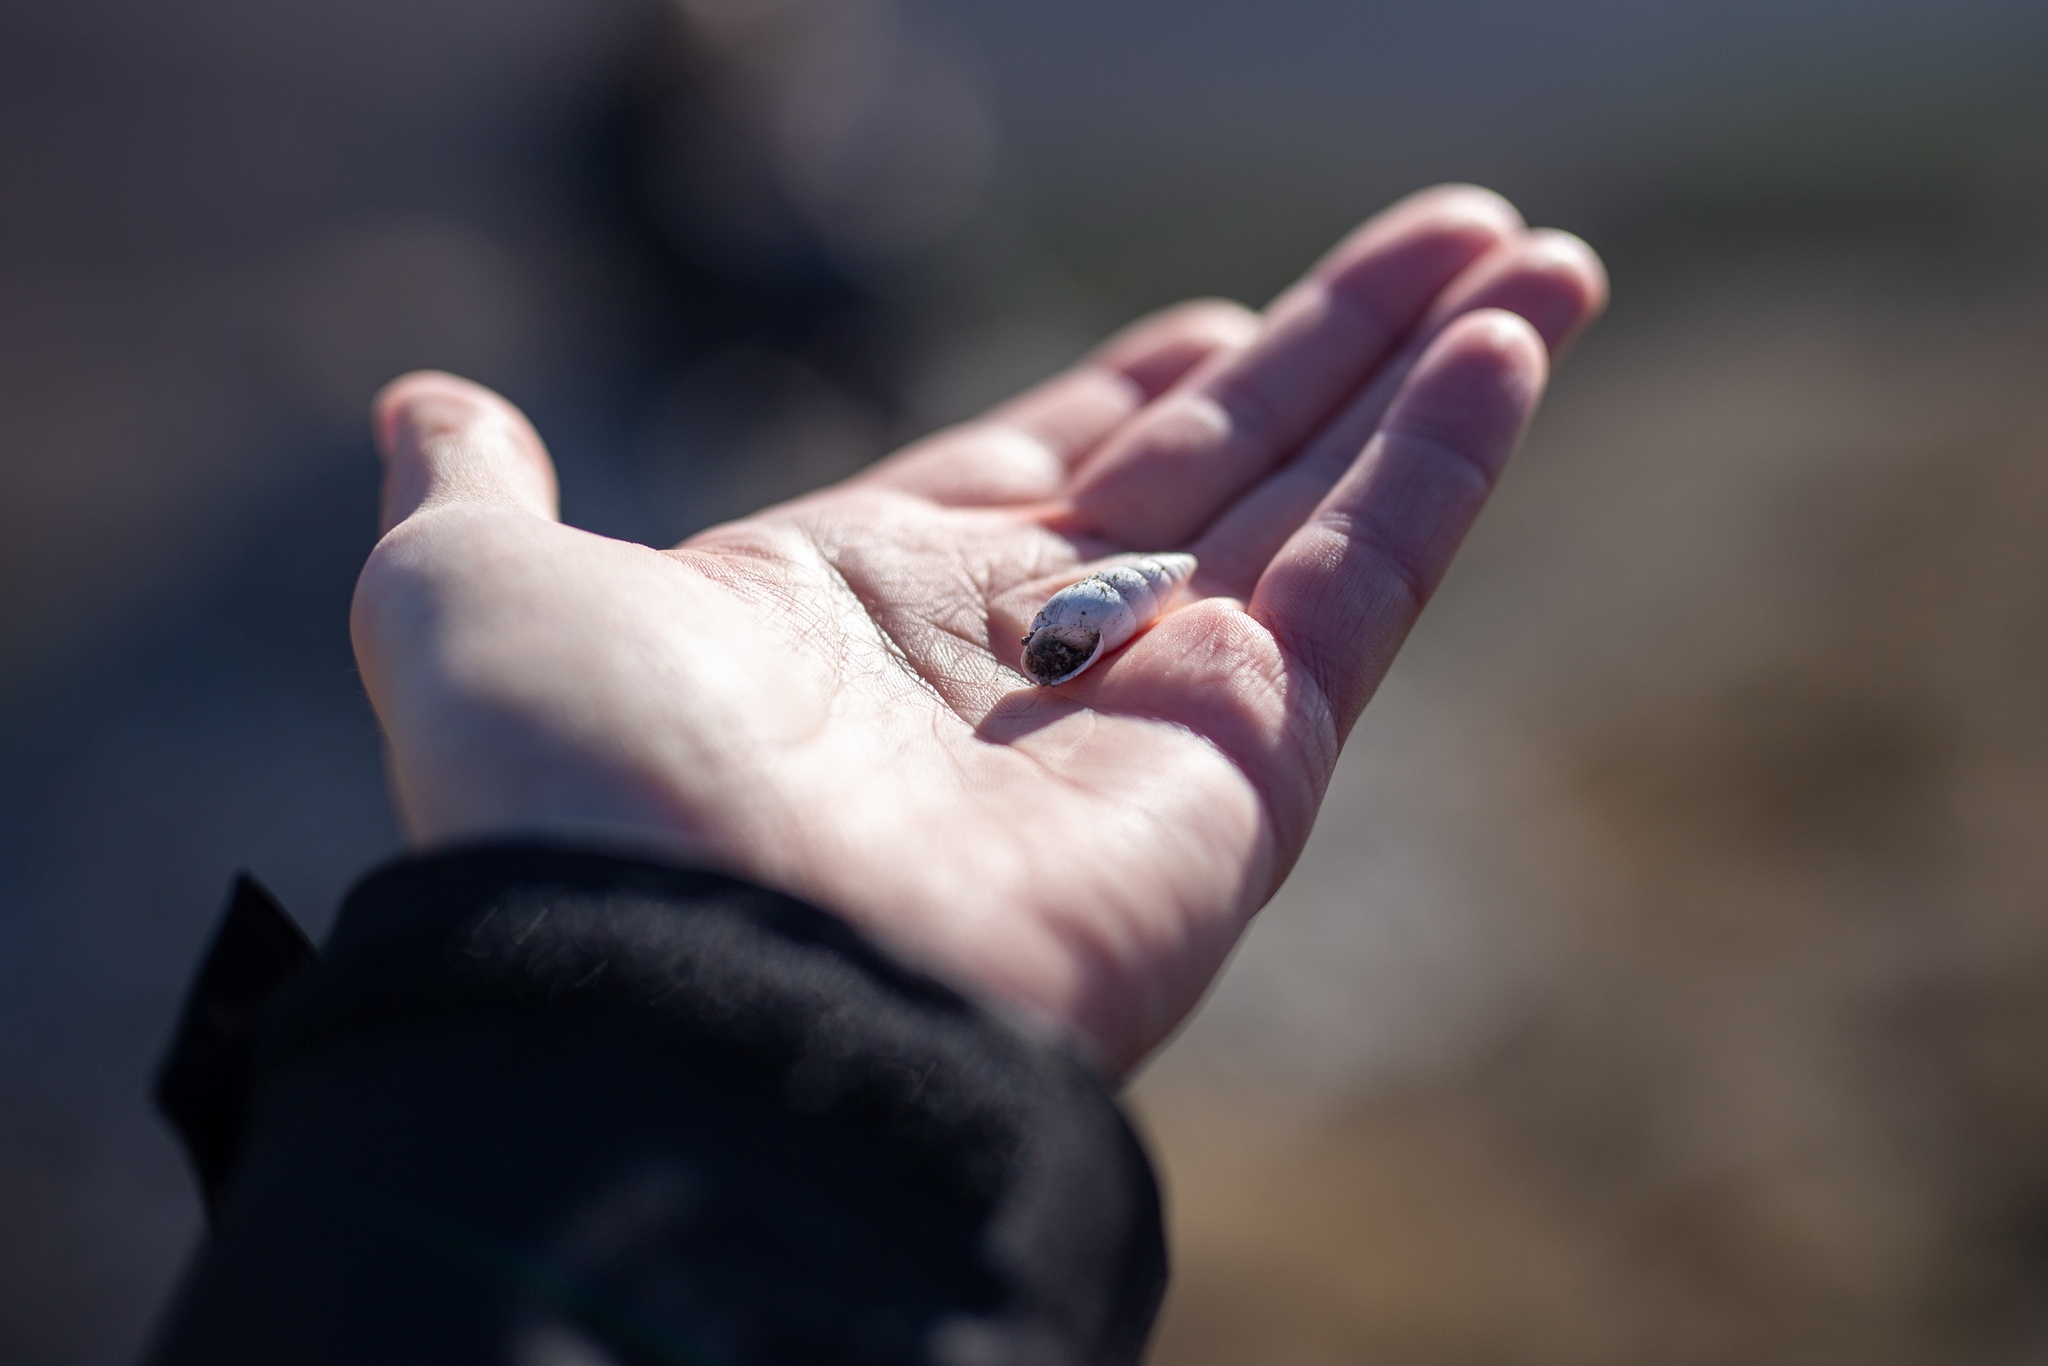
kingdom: Animalia
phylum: Mollusca
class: Gastropoda
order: Stylommatophora
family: Enidae
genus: Brephulopsis
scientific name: Brephulopsis cylindrica
